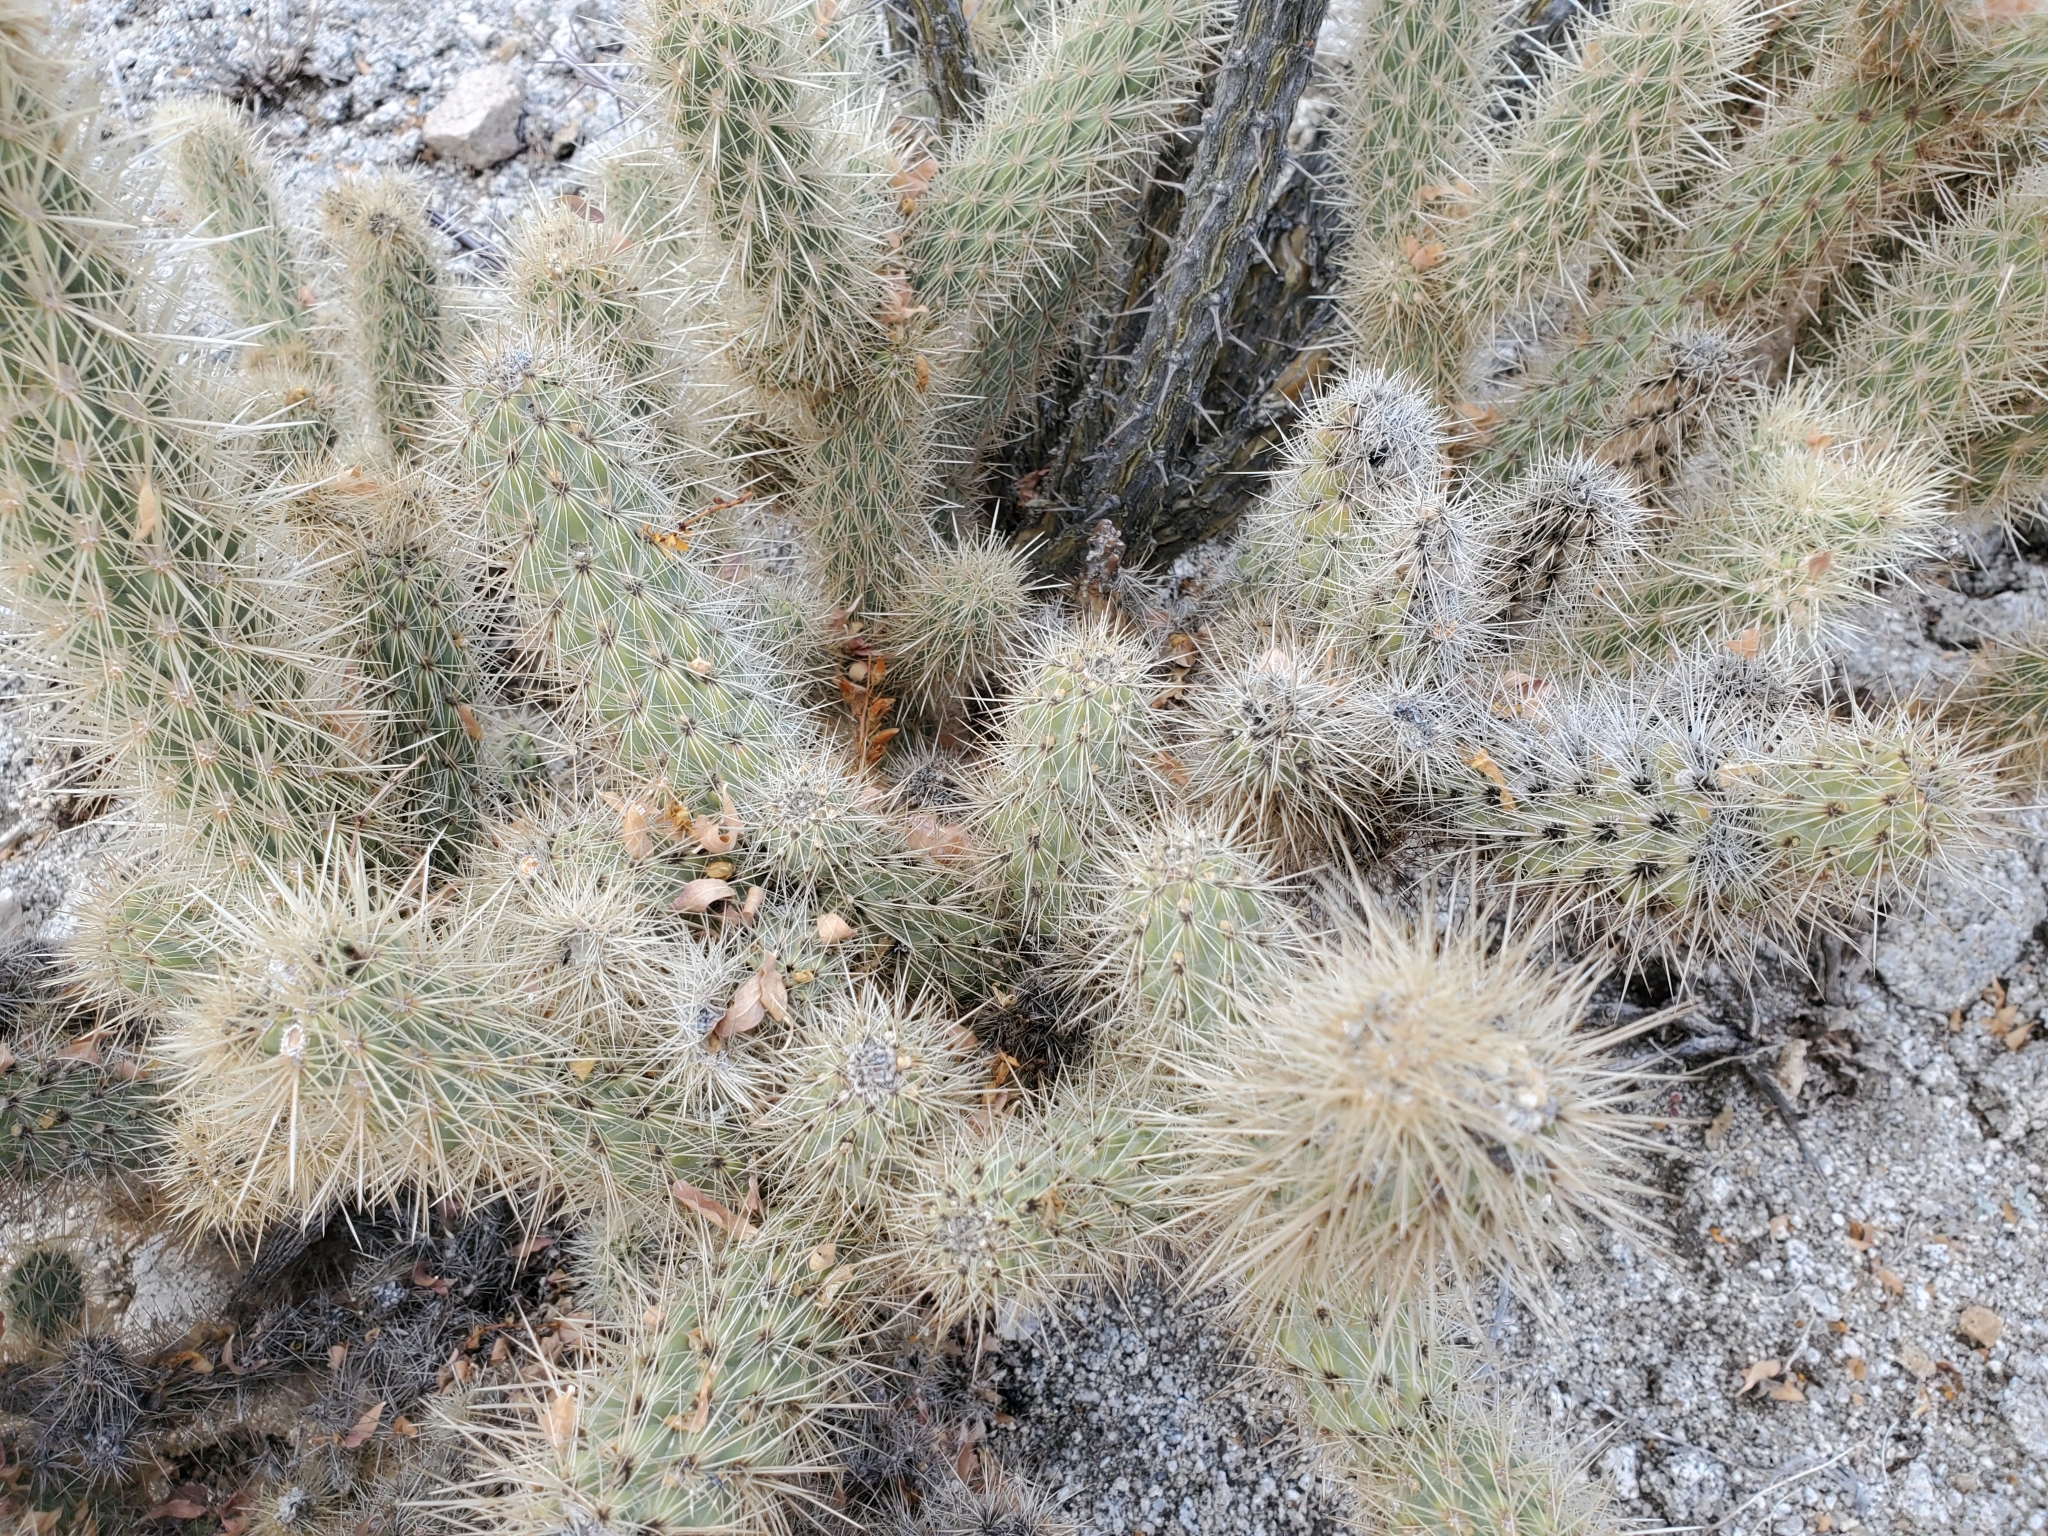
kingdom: Plantae
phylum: Tracheophyta
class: Magnoliopsida
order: Caryophyllales
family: Cactaceae
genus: Cylindropuntia
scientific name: Cylindropuntia ganderi
